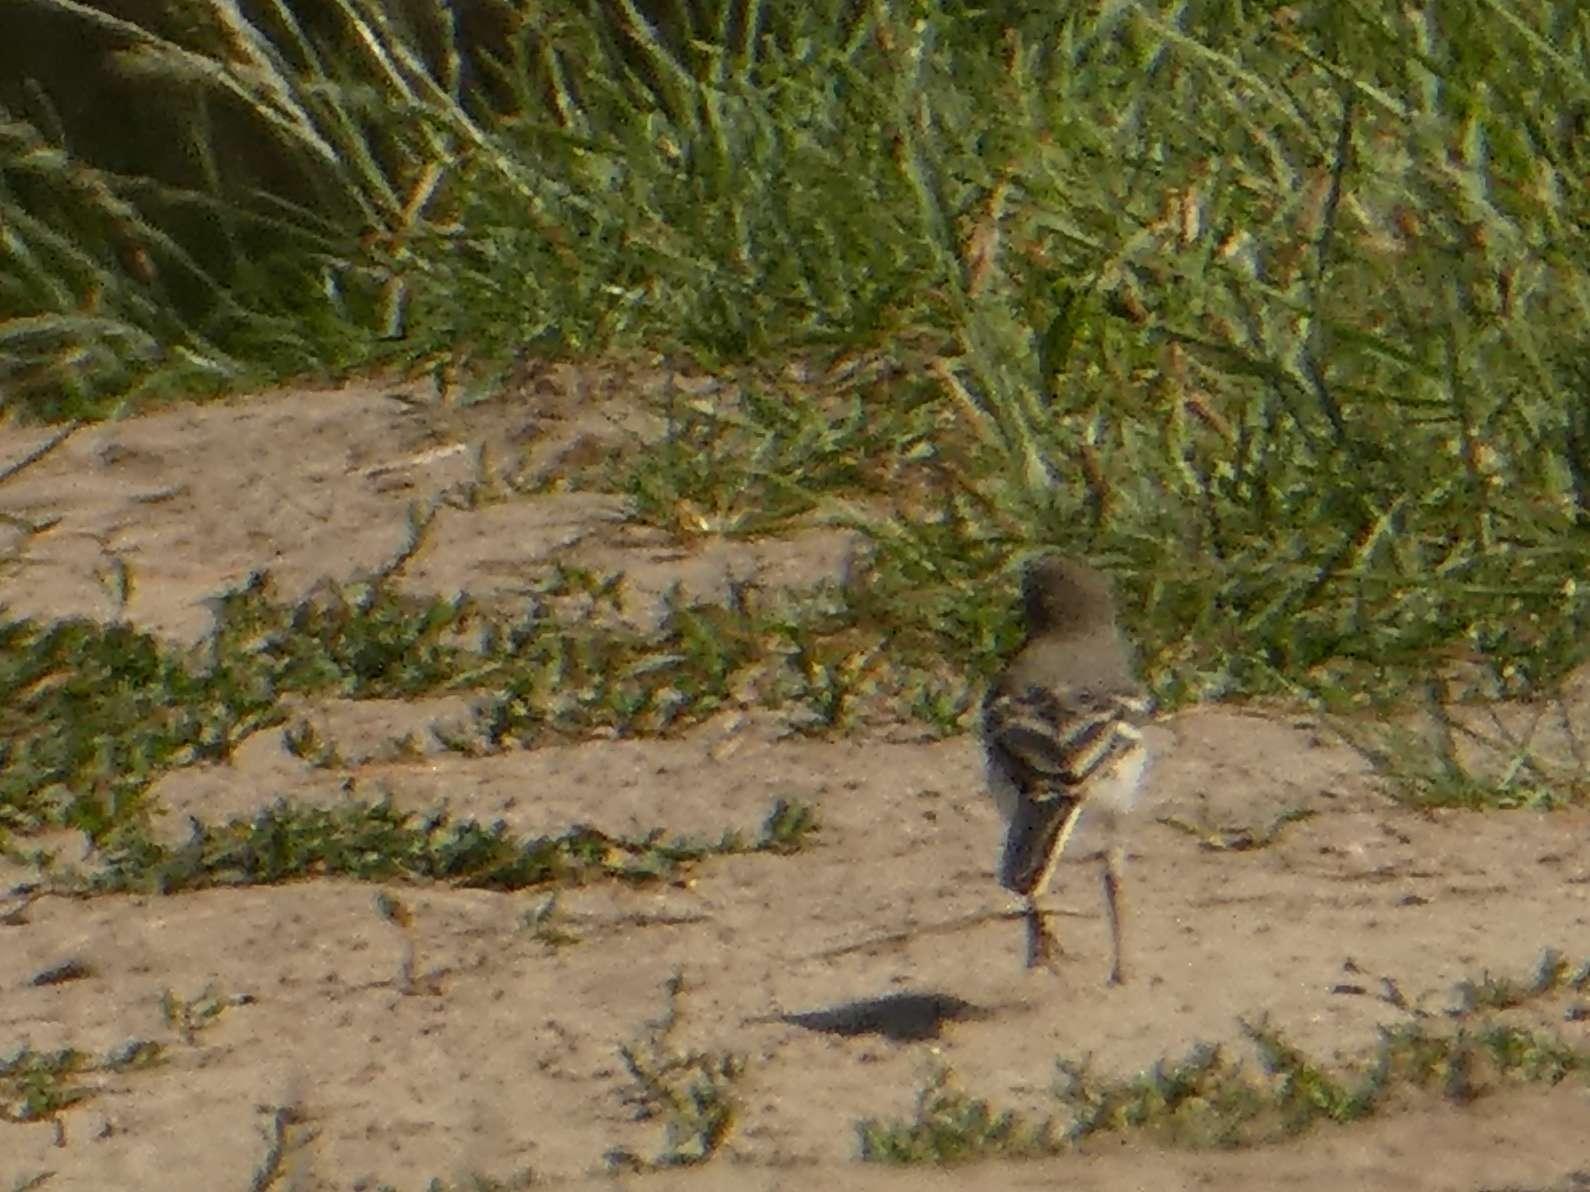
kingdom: Animalia
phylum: Chordata
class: Aves
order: Passeriformes
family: Motacillidae
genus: Motacilla
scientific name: Motacilla alba
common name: White wagtail
